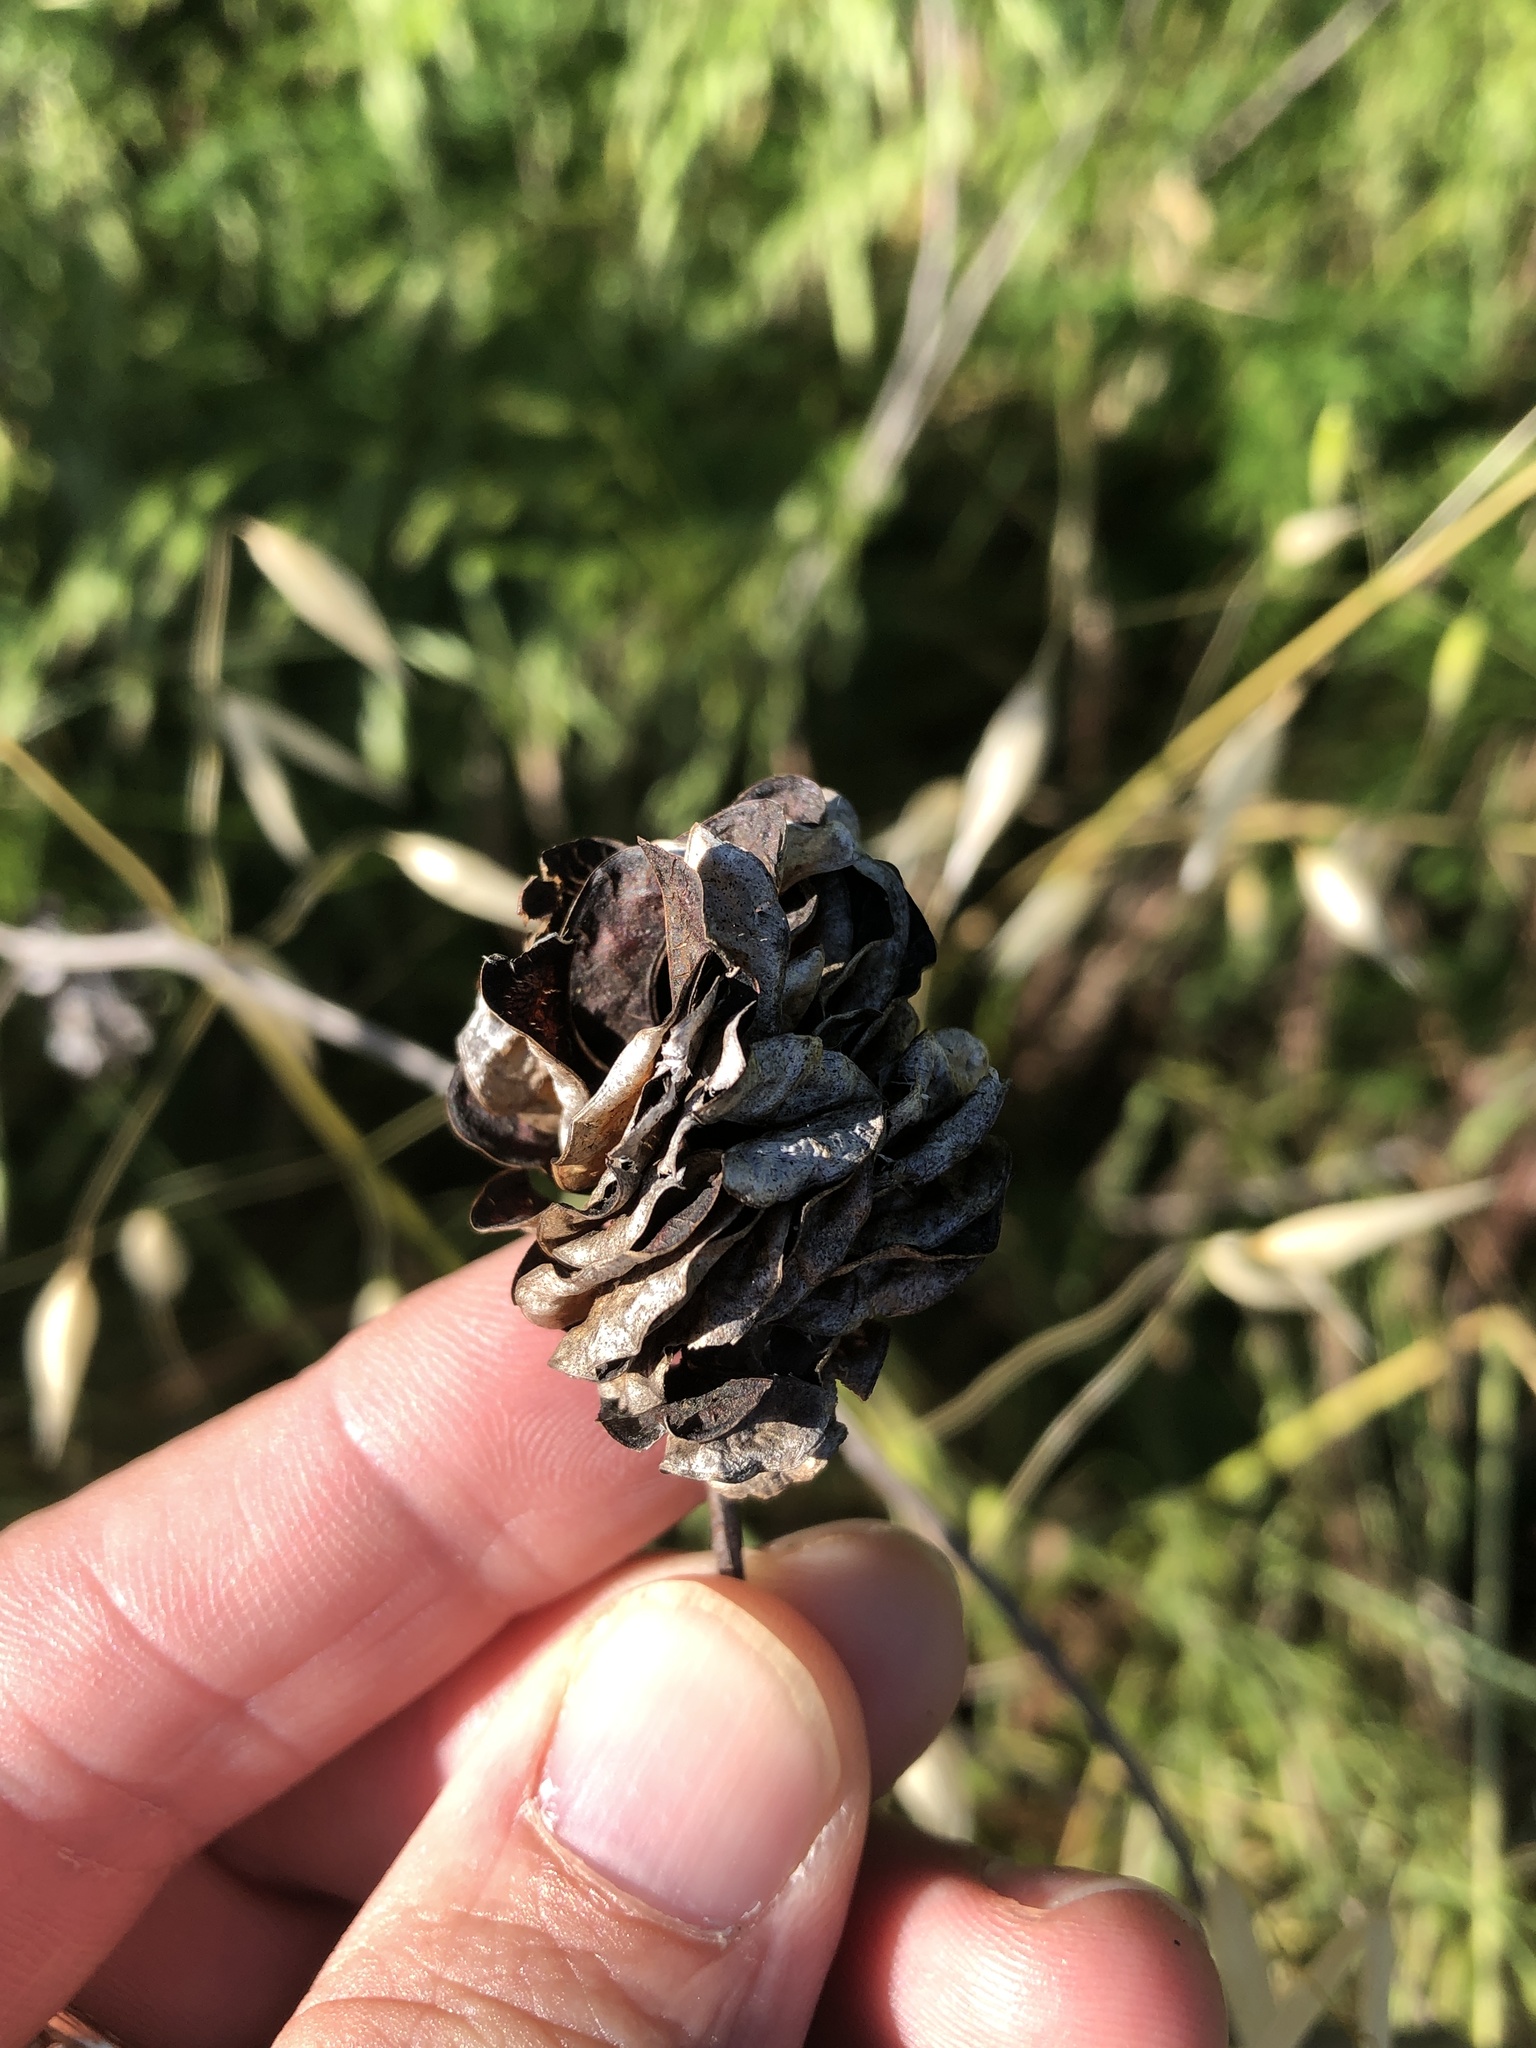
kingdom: Plantae
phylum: Tracheophyta
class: Magnoliopsida
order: Fabales
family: Fabaceae
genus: Desmanthus
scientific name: Desmanthus illinoensis
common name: Illinois bundle-flower
